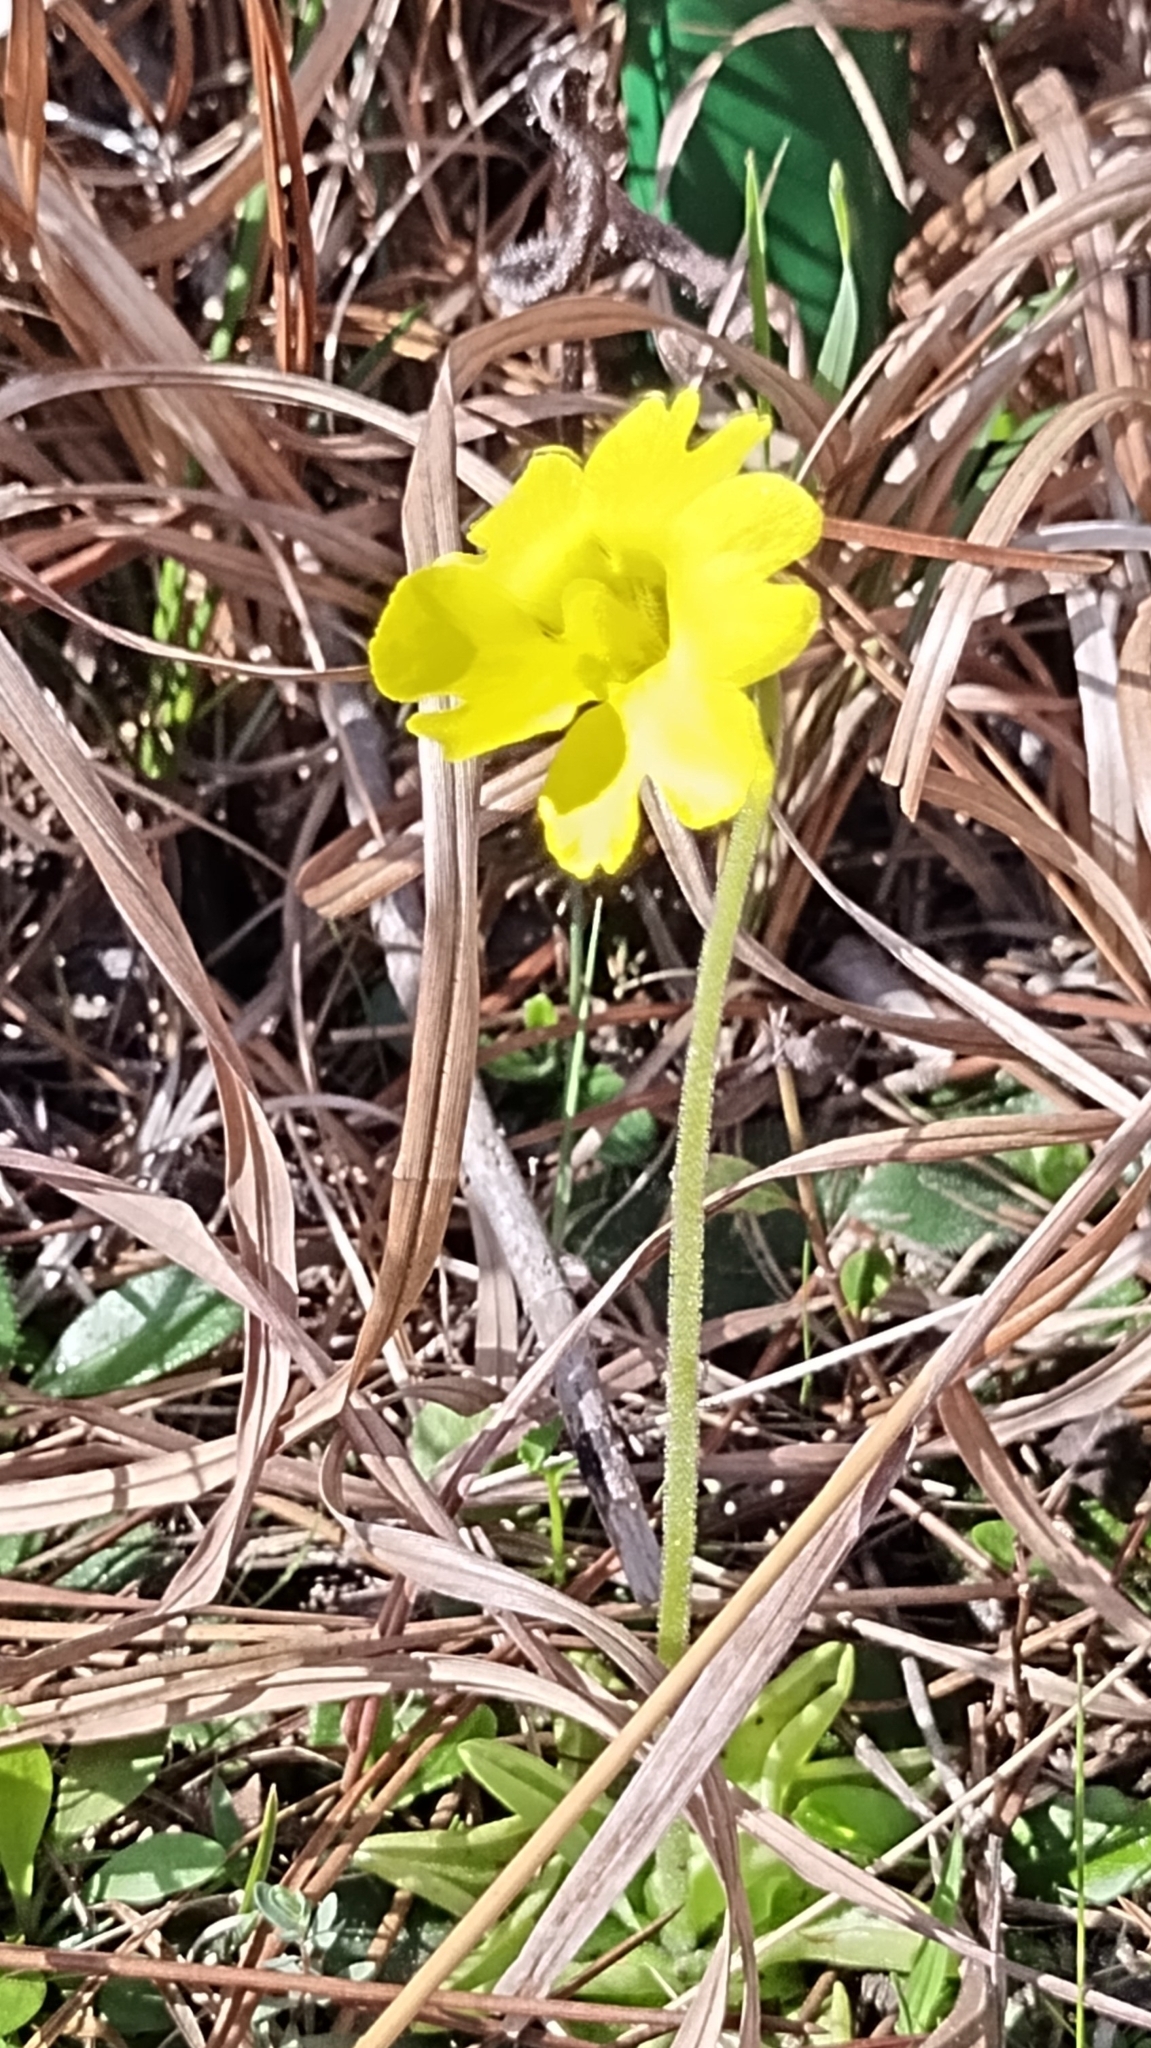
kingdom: Plantae
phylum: Tracheophyta
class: Magnoliopsida
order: Lamiales
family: Lentibulariaceae
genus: Pinguicula
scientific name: Pinguicula lutea
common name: Yellow butterwort
